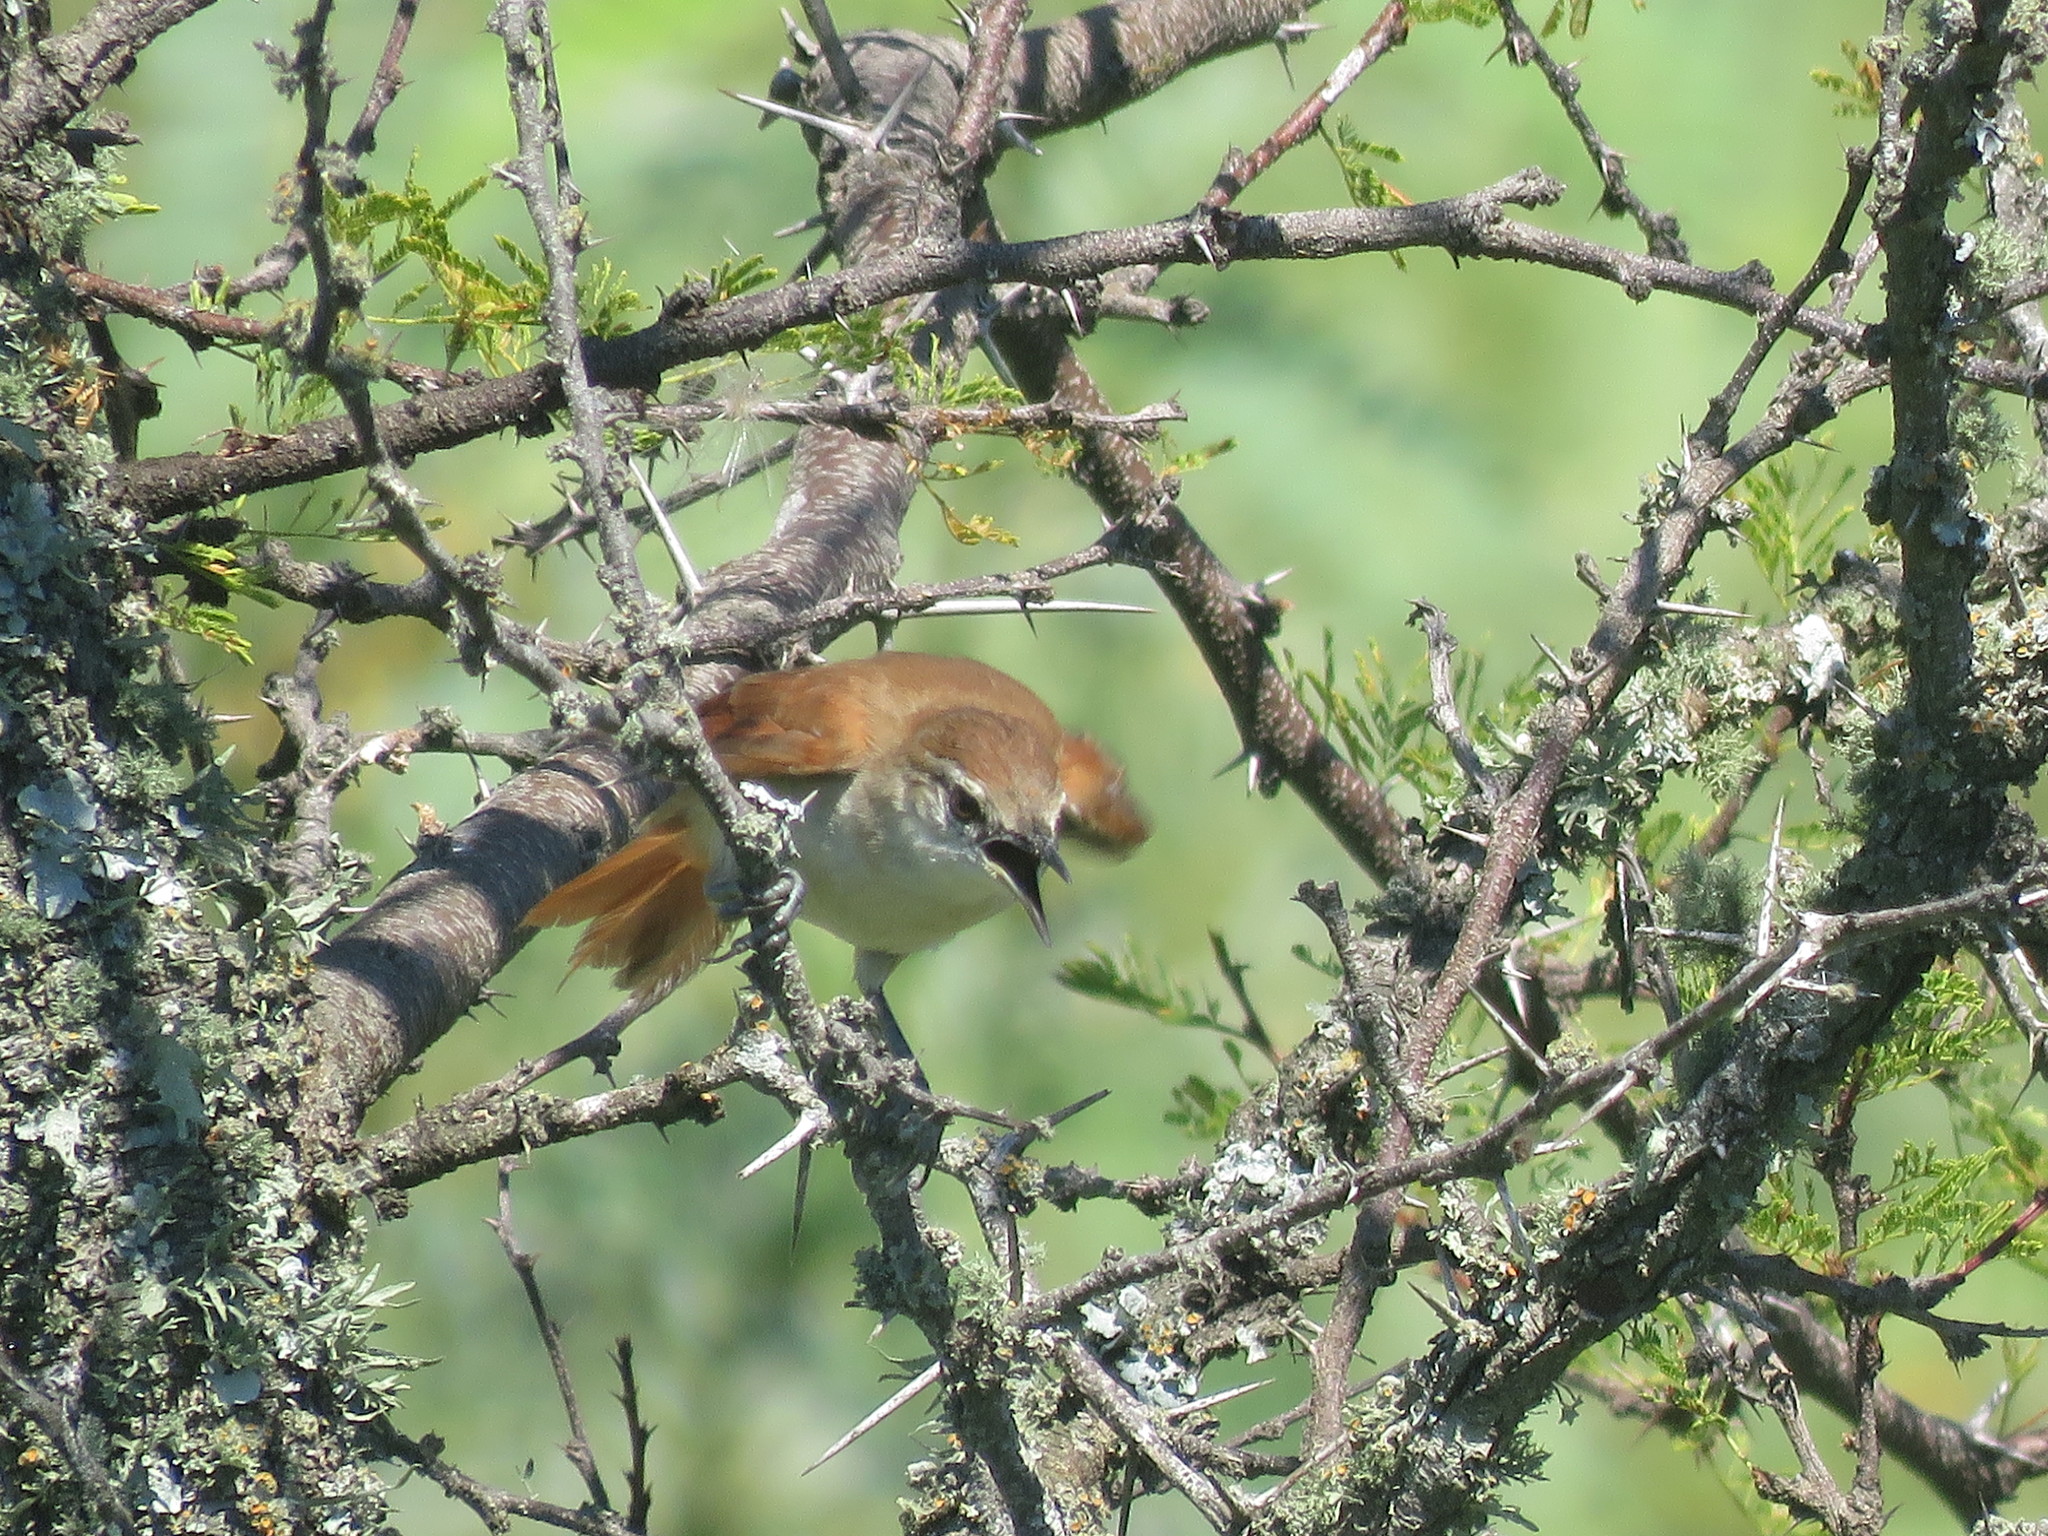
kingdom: Animalia
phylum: Chordata
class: Aves
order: Passeriformes
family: Furnariidae
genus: Certhiaxis
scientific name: Certhiaxis cinnamomeus
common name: Yellow-chinned spinetail
